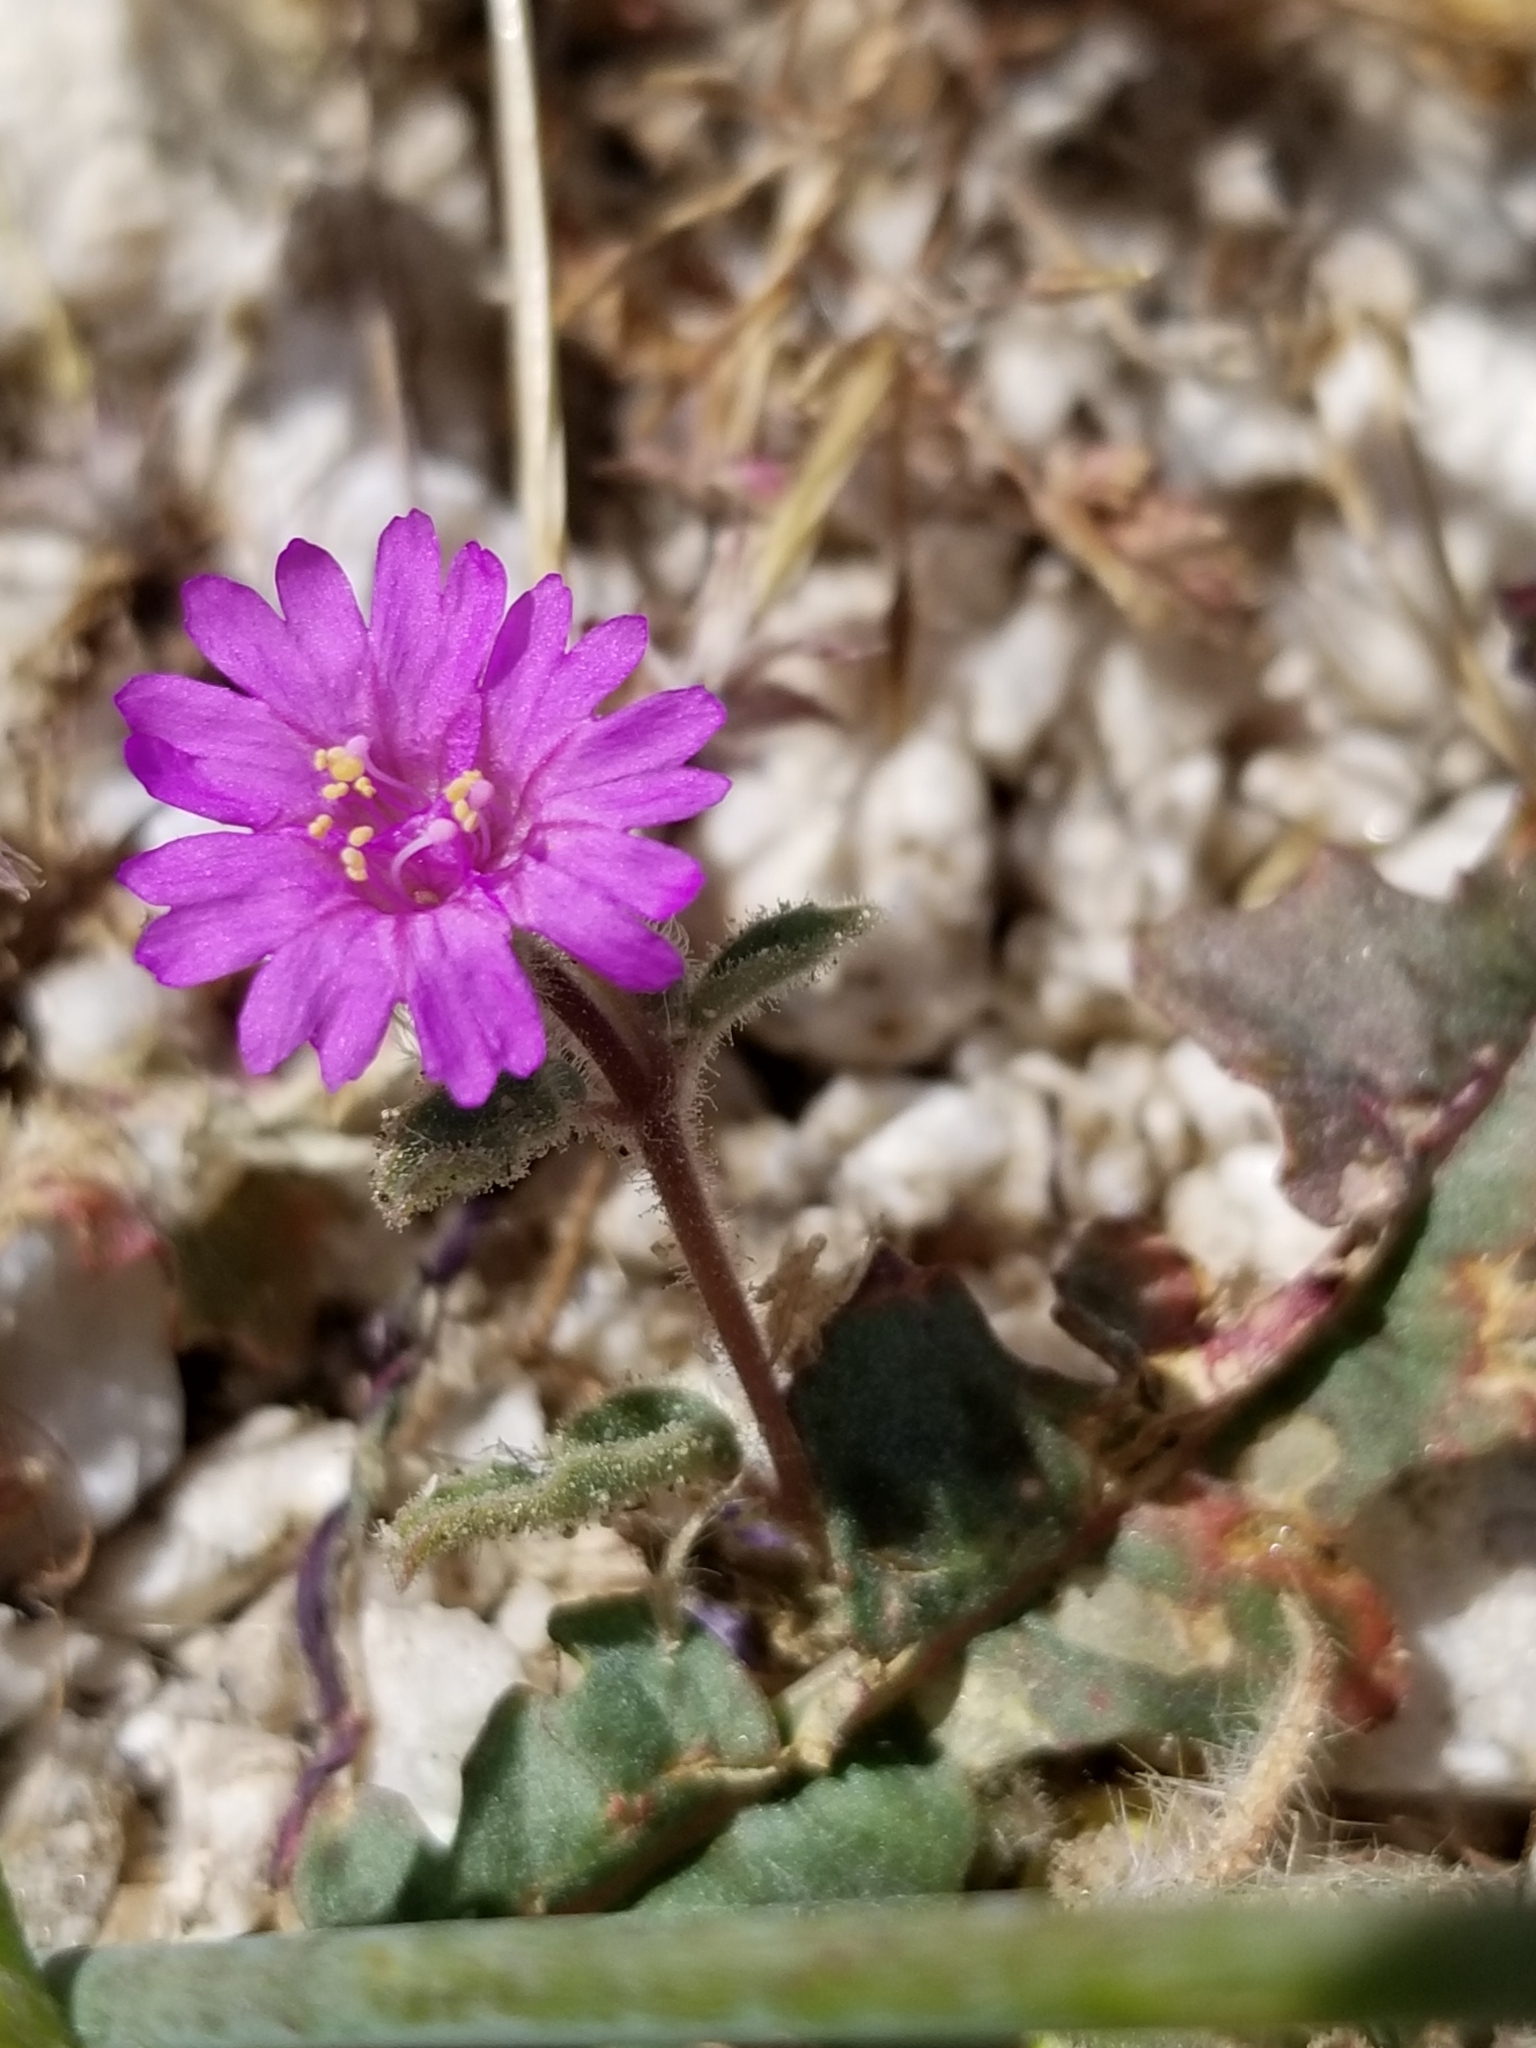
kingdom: Plantae
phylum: Tracheophyta
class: Magnoliopsida
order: Caryophyllales
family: Nyctaginaceae
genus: Allionia
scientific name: Allionia incarnata
